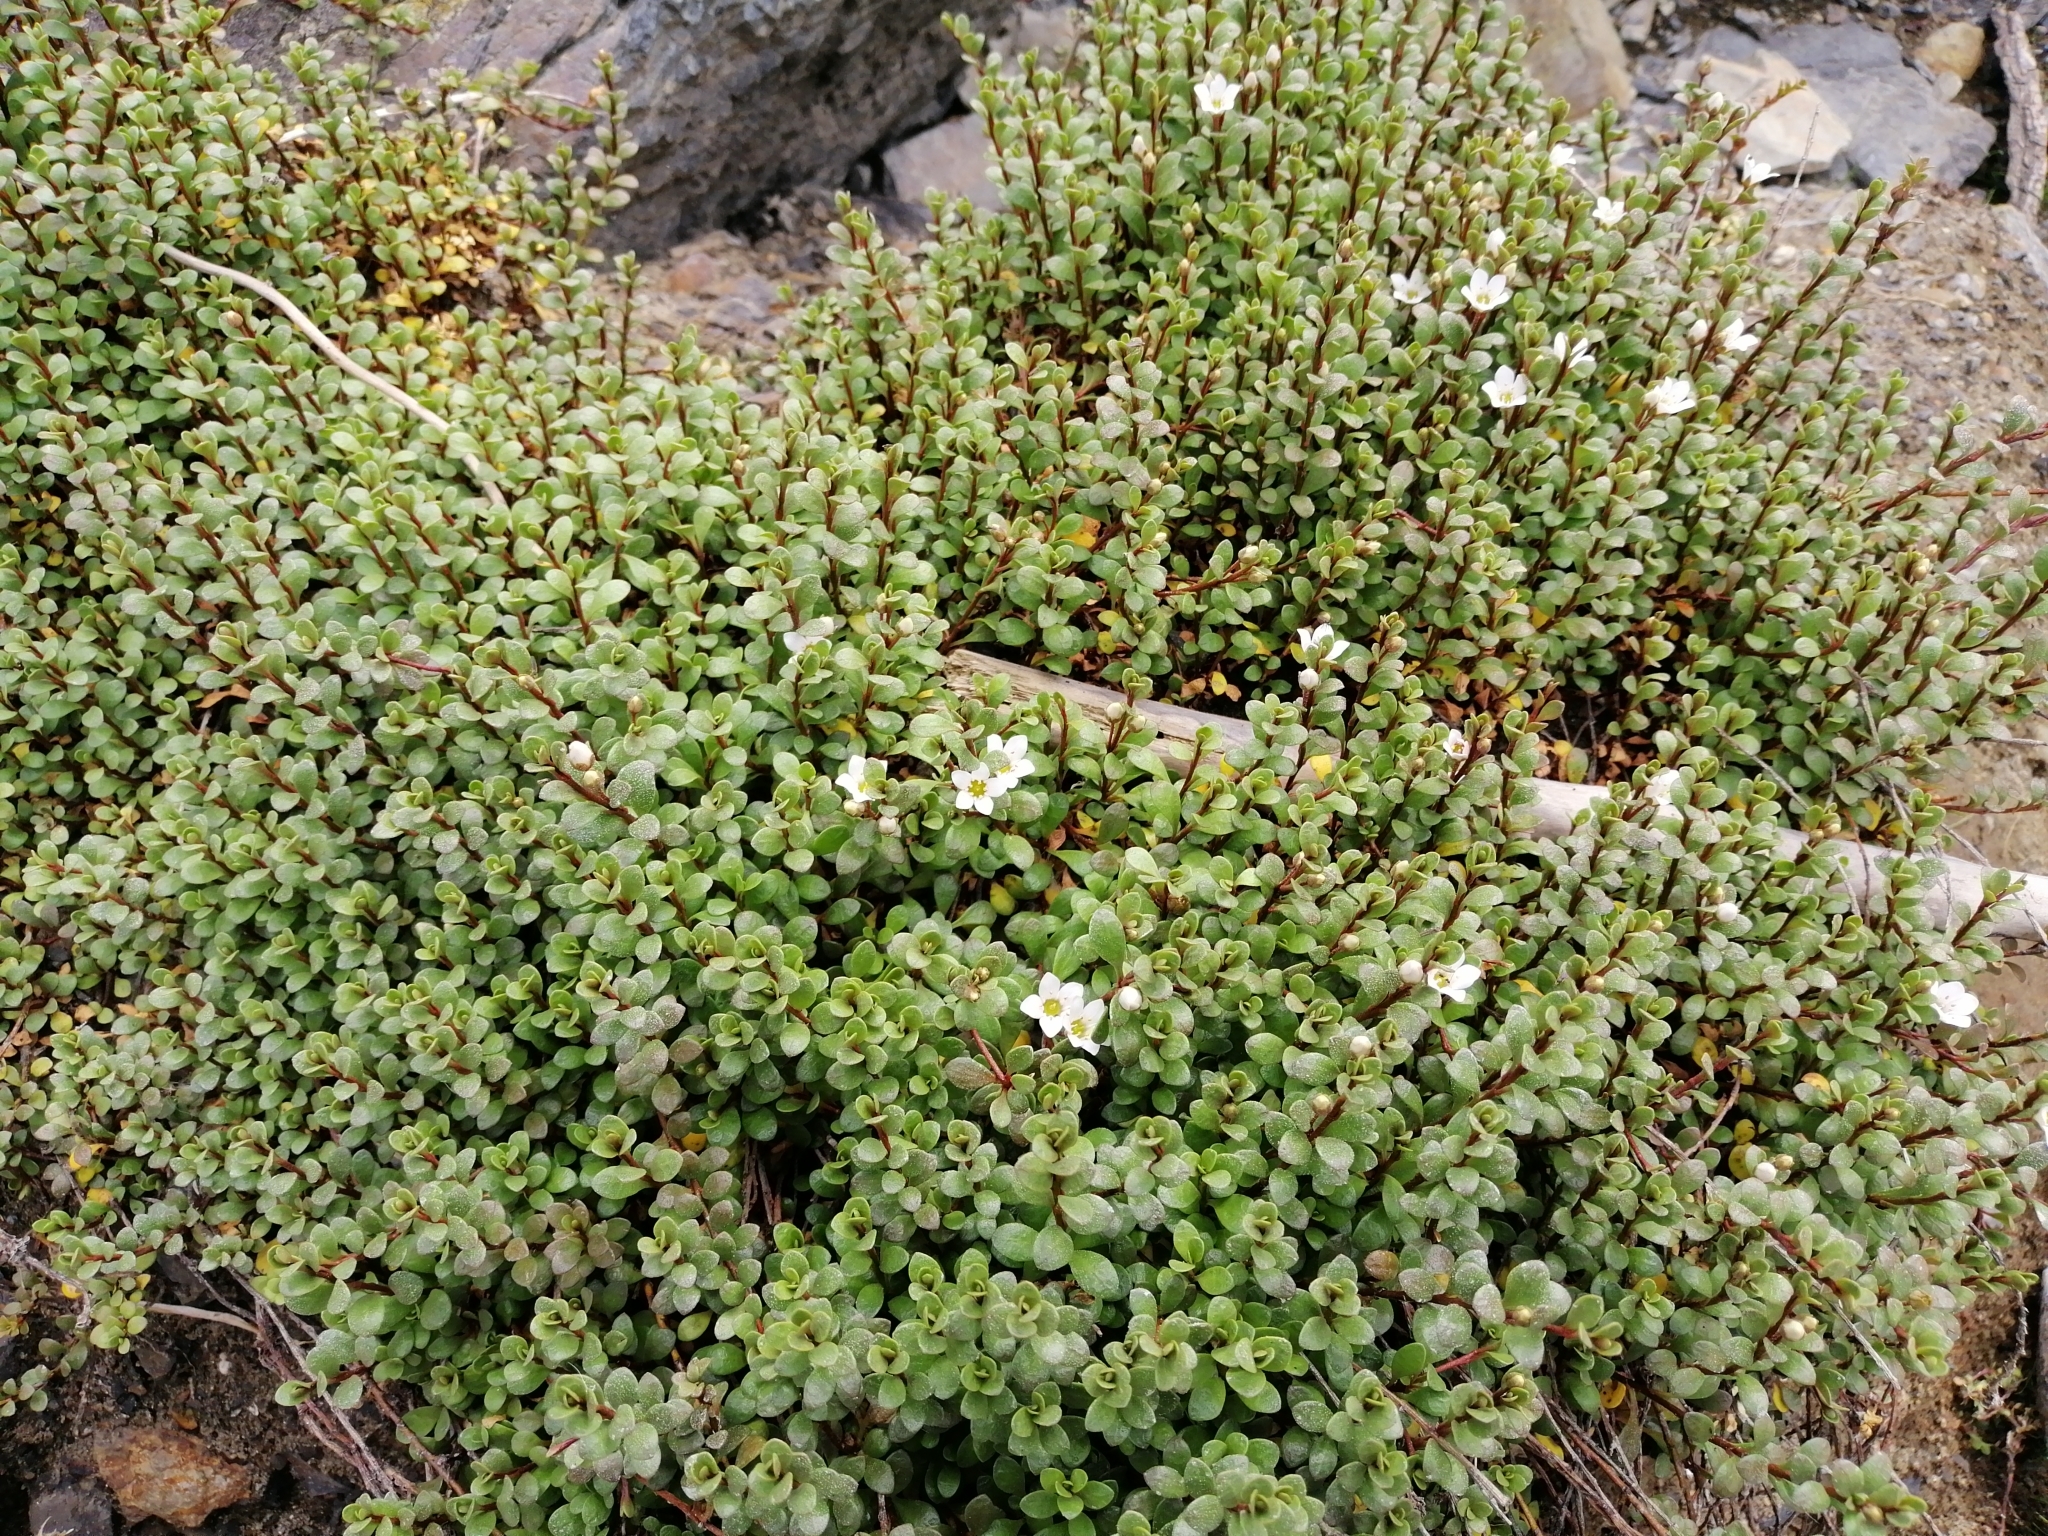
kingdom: Plantae
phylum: Tracheophyta
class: Magnoliopsida
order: Ericales
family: Primulaceae
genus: Samolus
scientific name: Samolus repens
